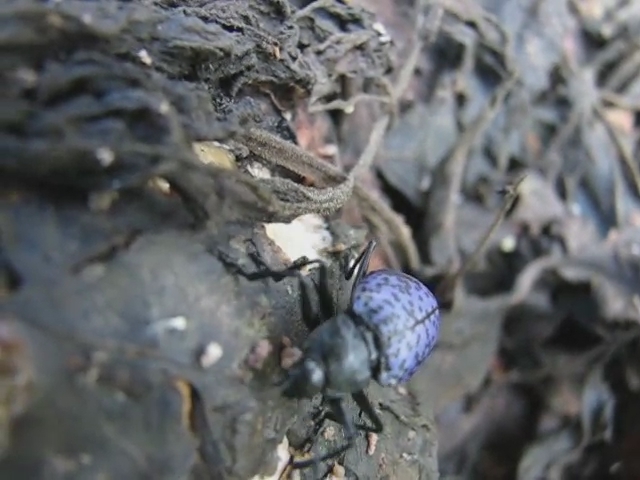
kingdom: Animalia
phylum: Arthropoda
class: Insecta
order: Coleoptera
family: Erotylidae
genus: Gibbifer
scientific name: Gibbifer californicus
